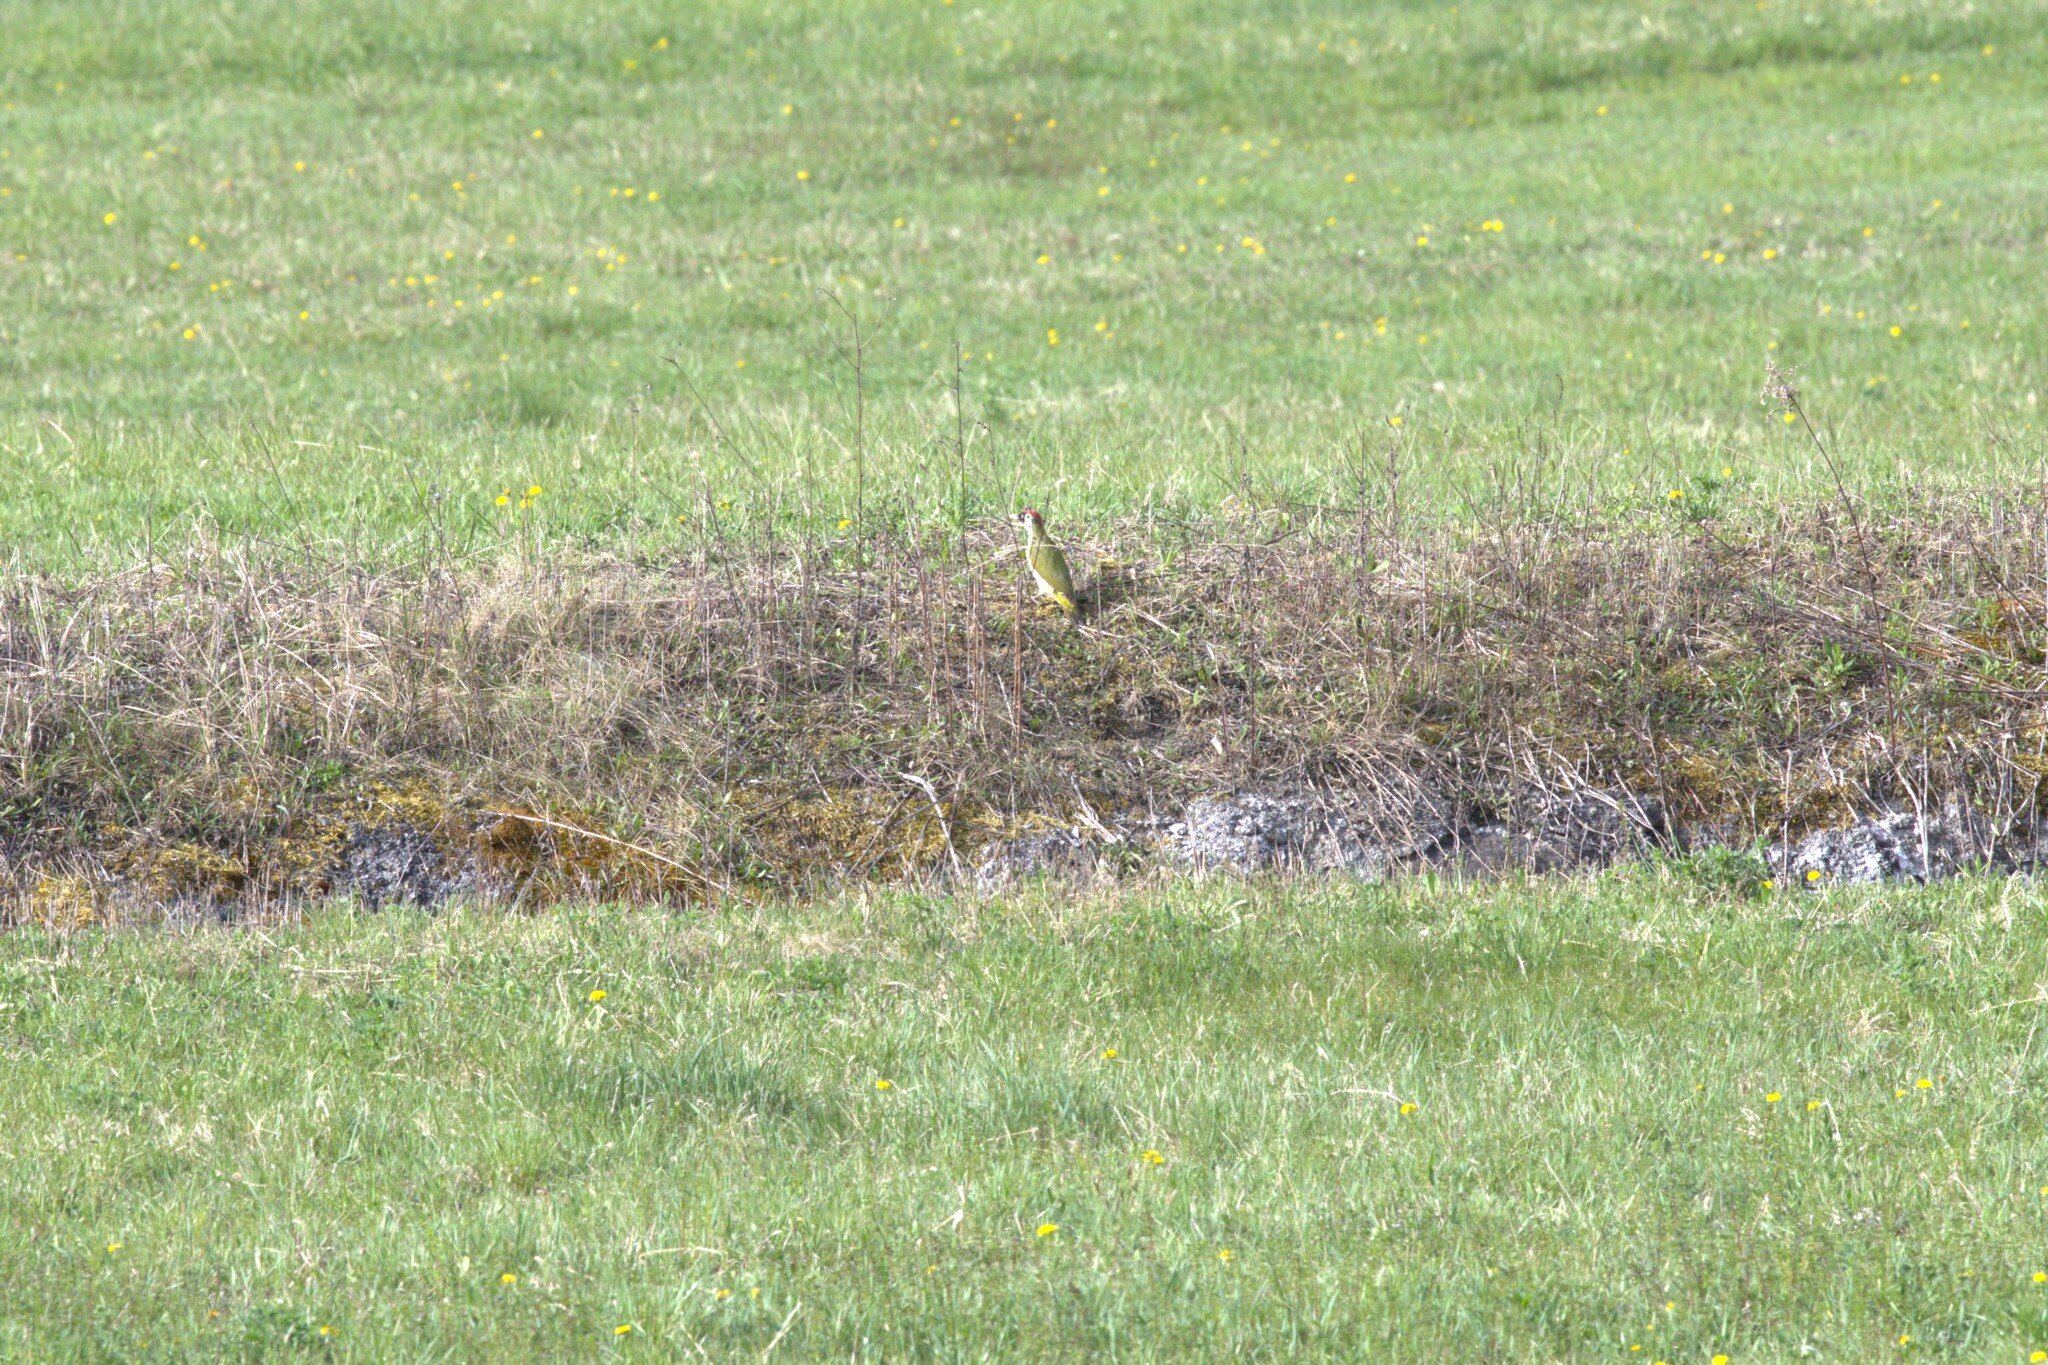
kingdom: Animalia
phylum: Chordata
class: Aves
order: Piciformes
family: Picidae
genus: Picus
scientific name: Picus viridis
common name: European green woodpecker
